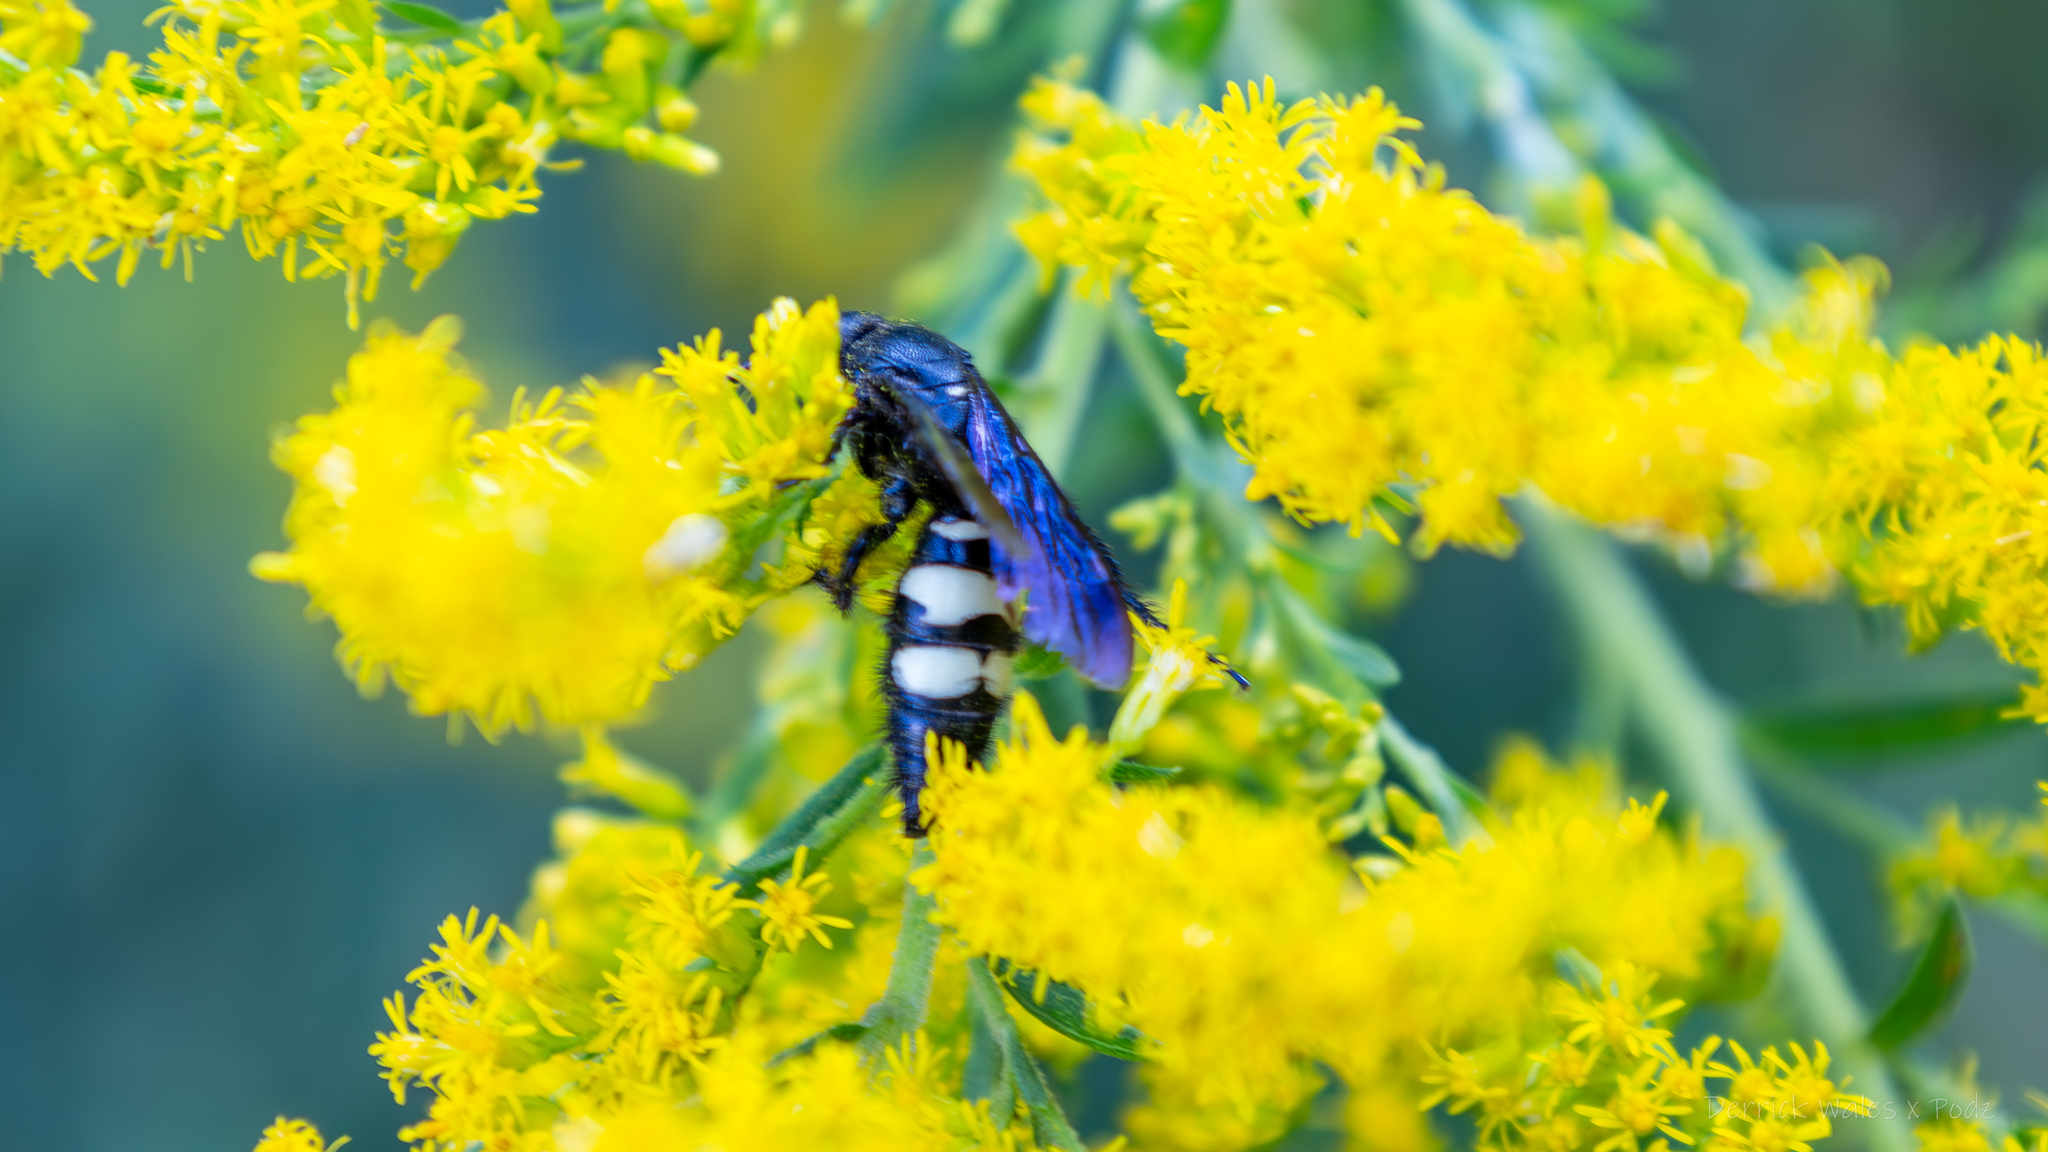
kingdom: Animalia
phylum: Arthropoda
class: Insecta
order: Hymenoptera
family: Scoliidae
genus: Scolia
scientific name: Scolia bicincta
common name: Double-banded scoliid wasp
